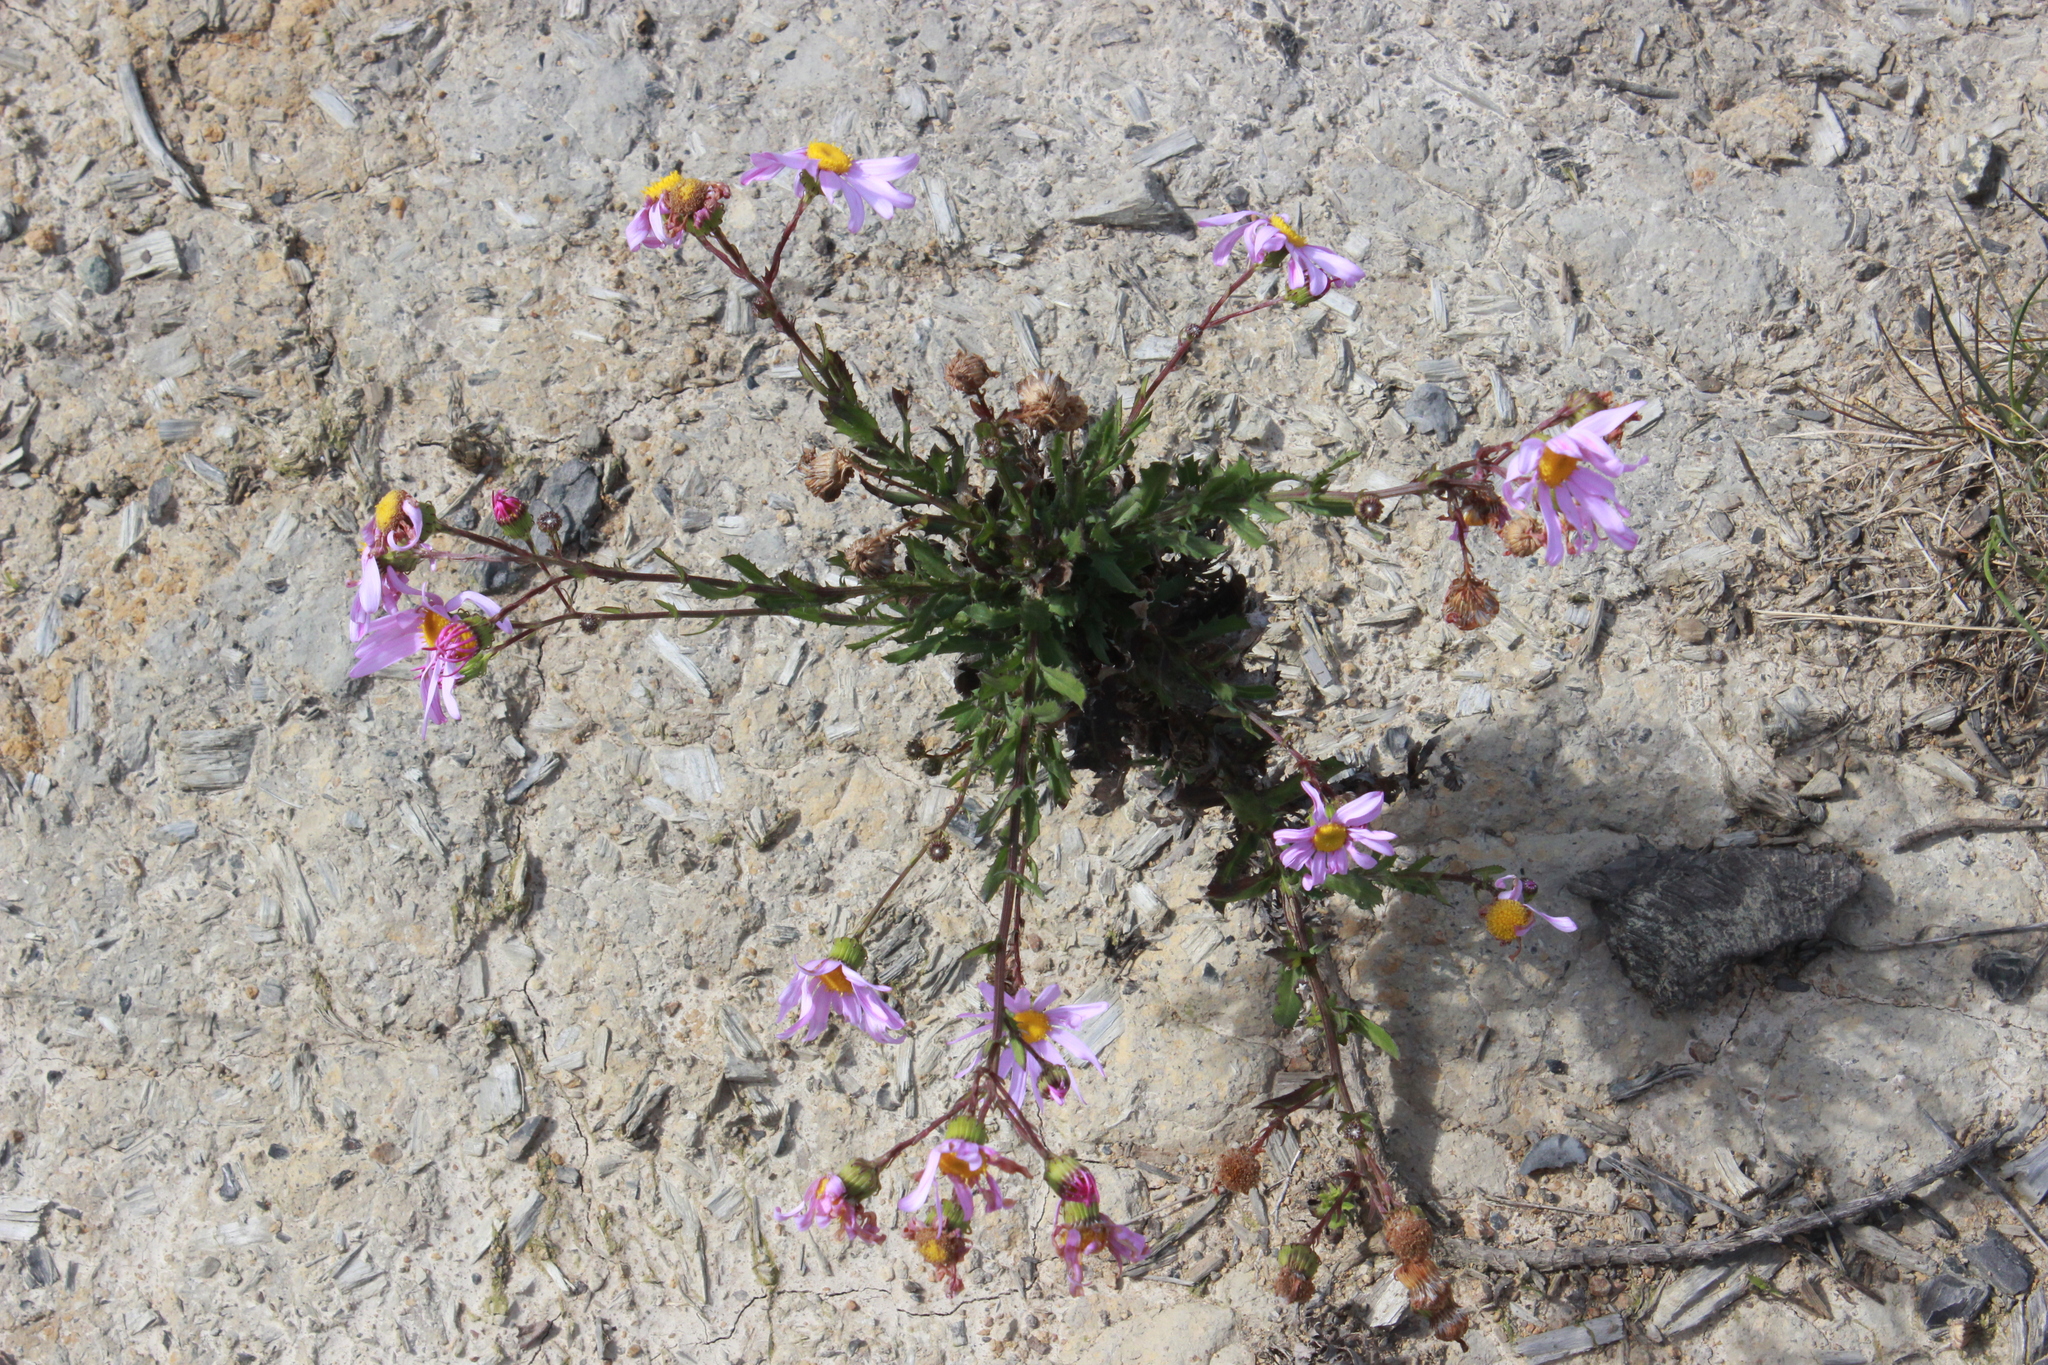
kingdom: Plantae
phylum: Tracheophyta
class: Magnoliopsida
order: Asterales
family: Asteraceae
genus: Senecio
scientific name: Senecio glastifolius
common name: Woad-leaved ragwort
